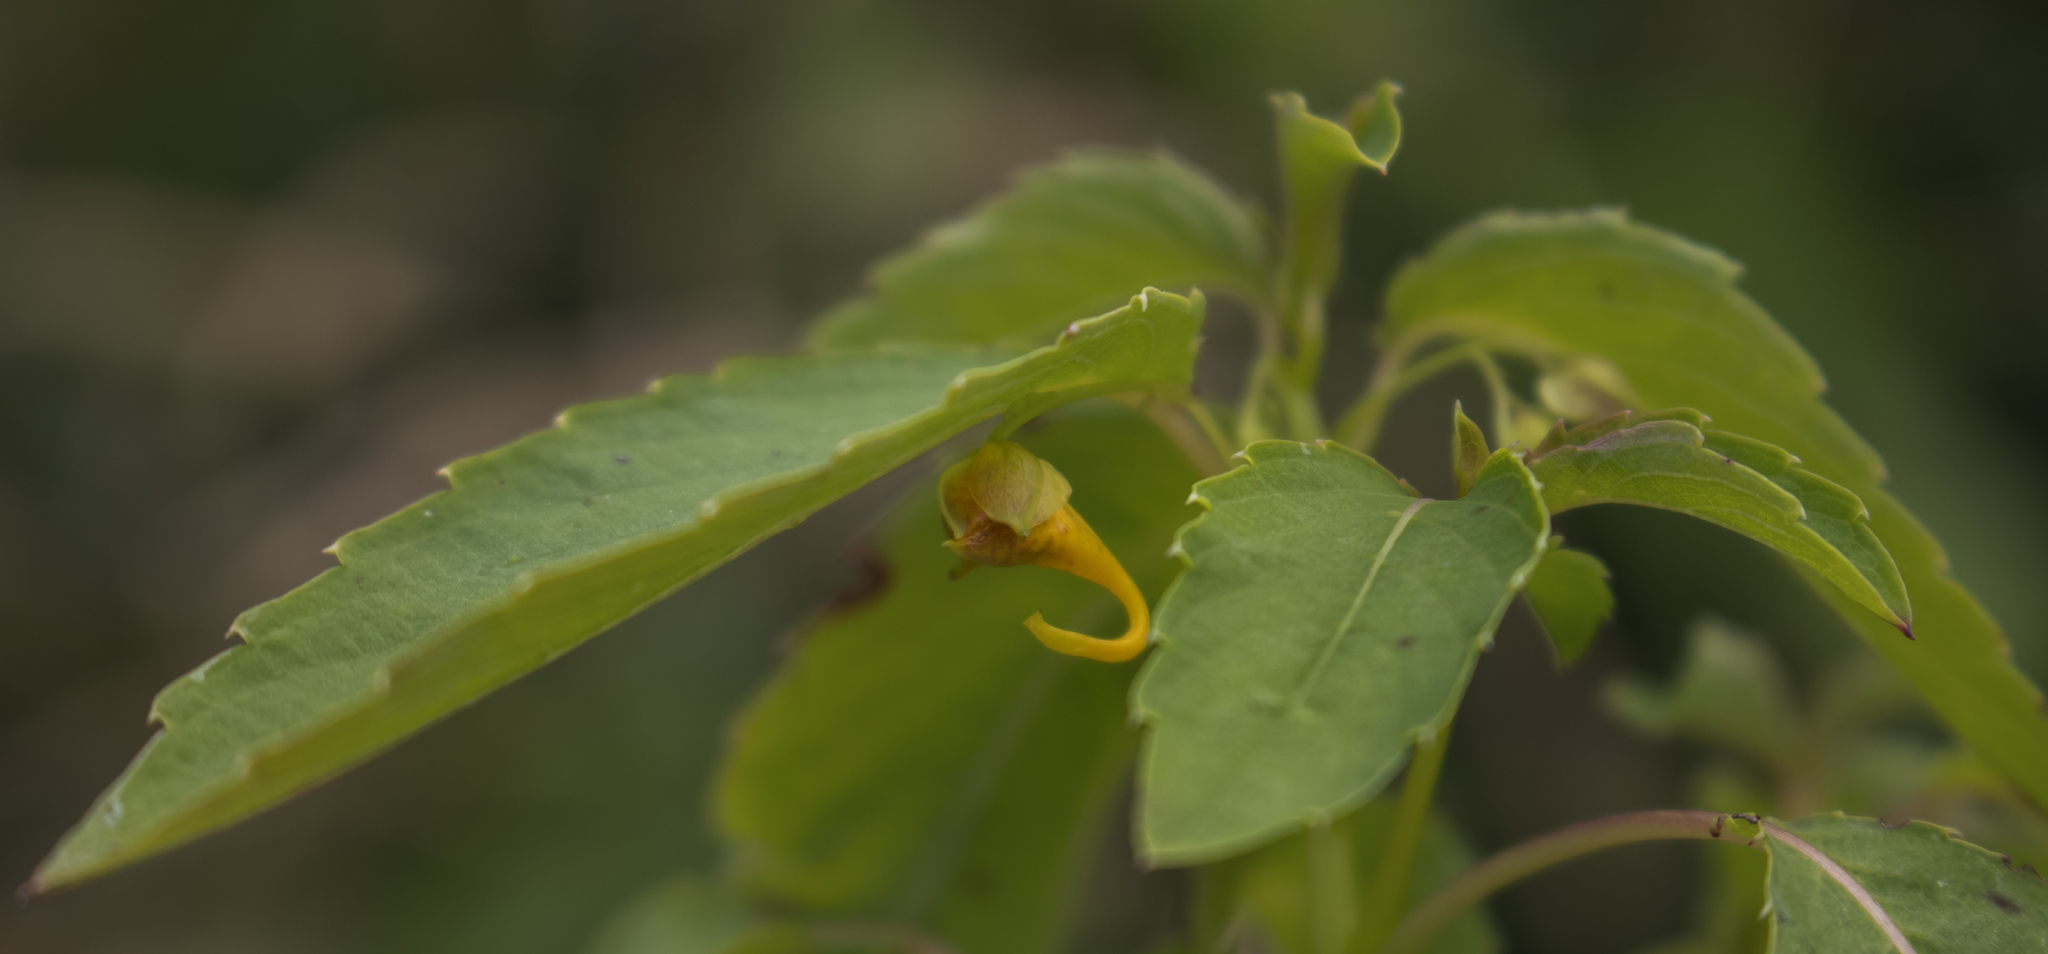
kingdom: Plantae
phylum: Tracheophyta
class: Magnoliopsida
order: Ericales
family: Balsaminaceae
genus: Impatiens
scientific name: Impatiens capensis
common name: Orange balsam
